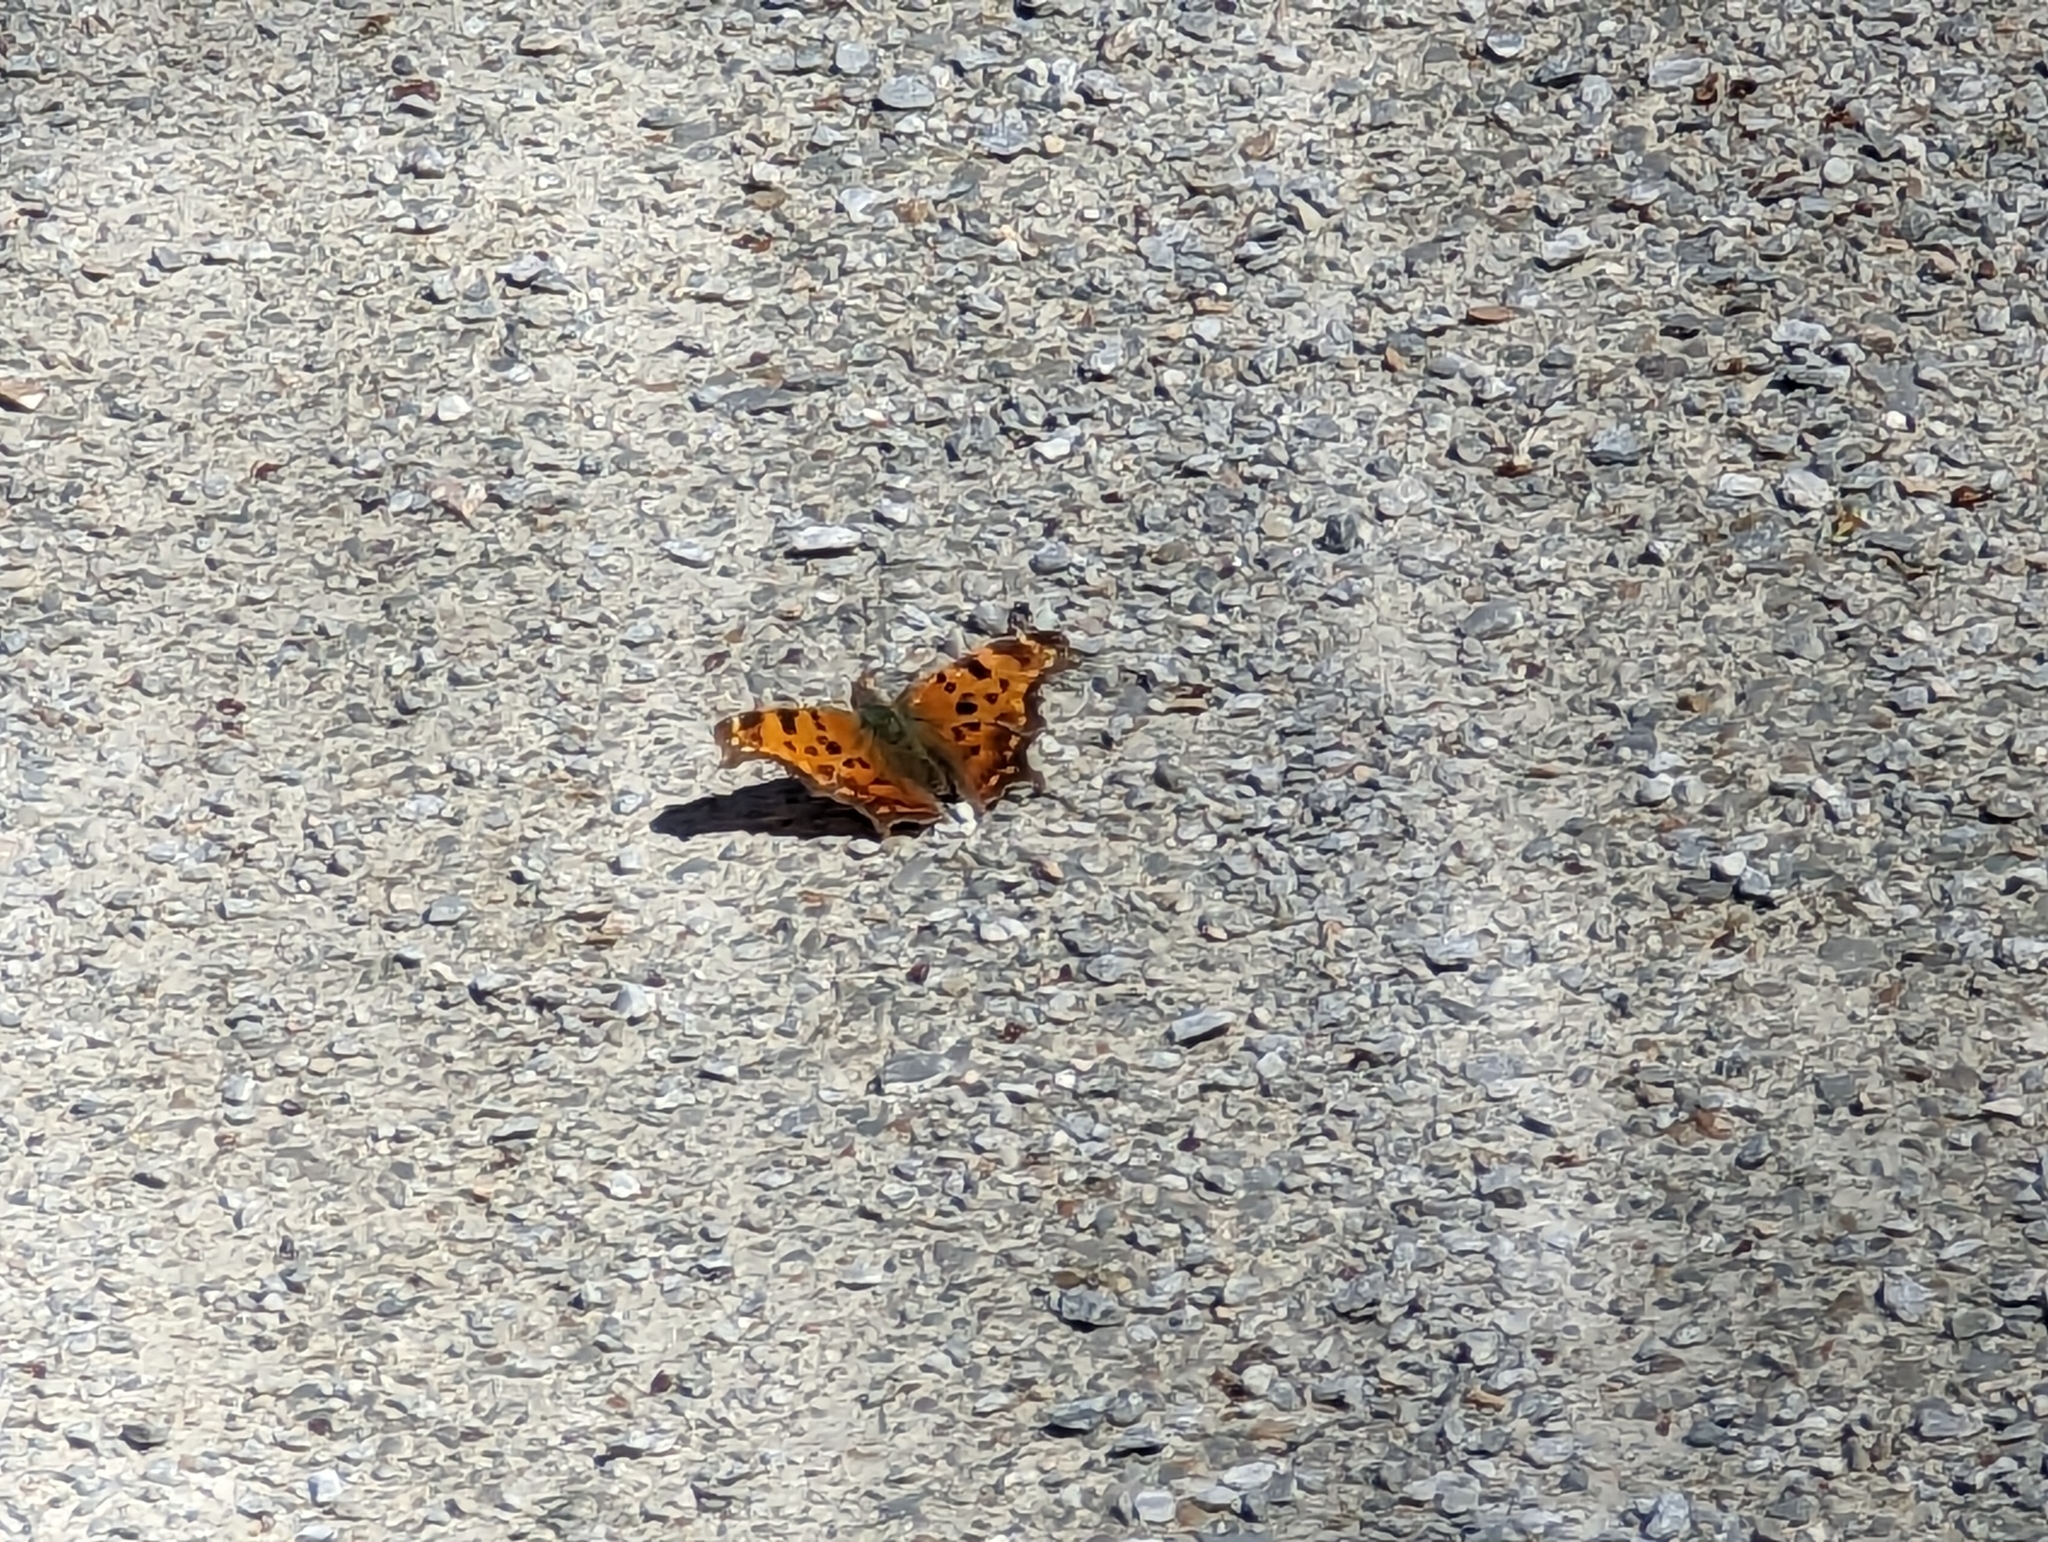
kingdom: Animalia
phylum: Arthropoda
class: Insecta
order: Lepidoptera
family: Nymphalidae
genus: Polygonia
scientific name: Polygonia comma
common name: Eastern comma
